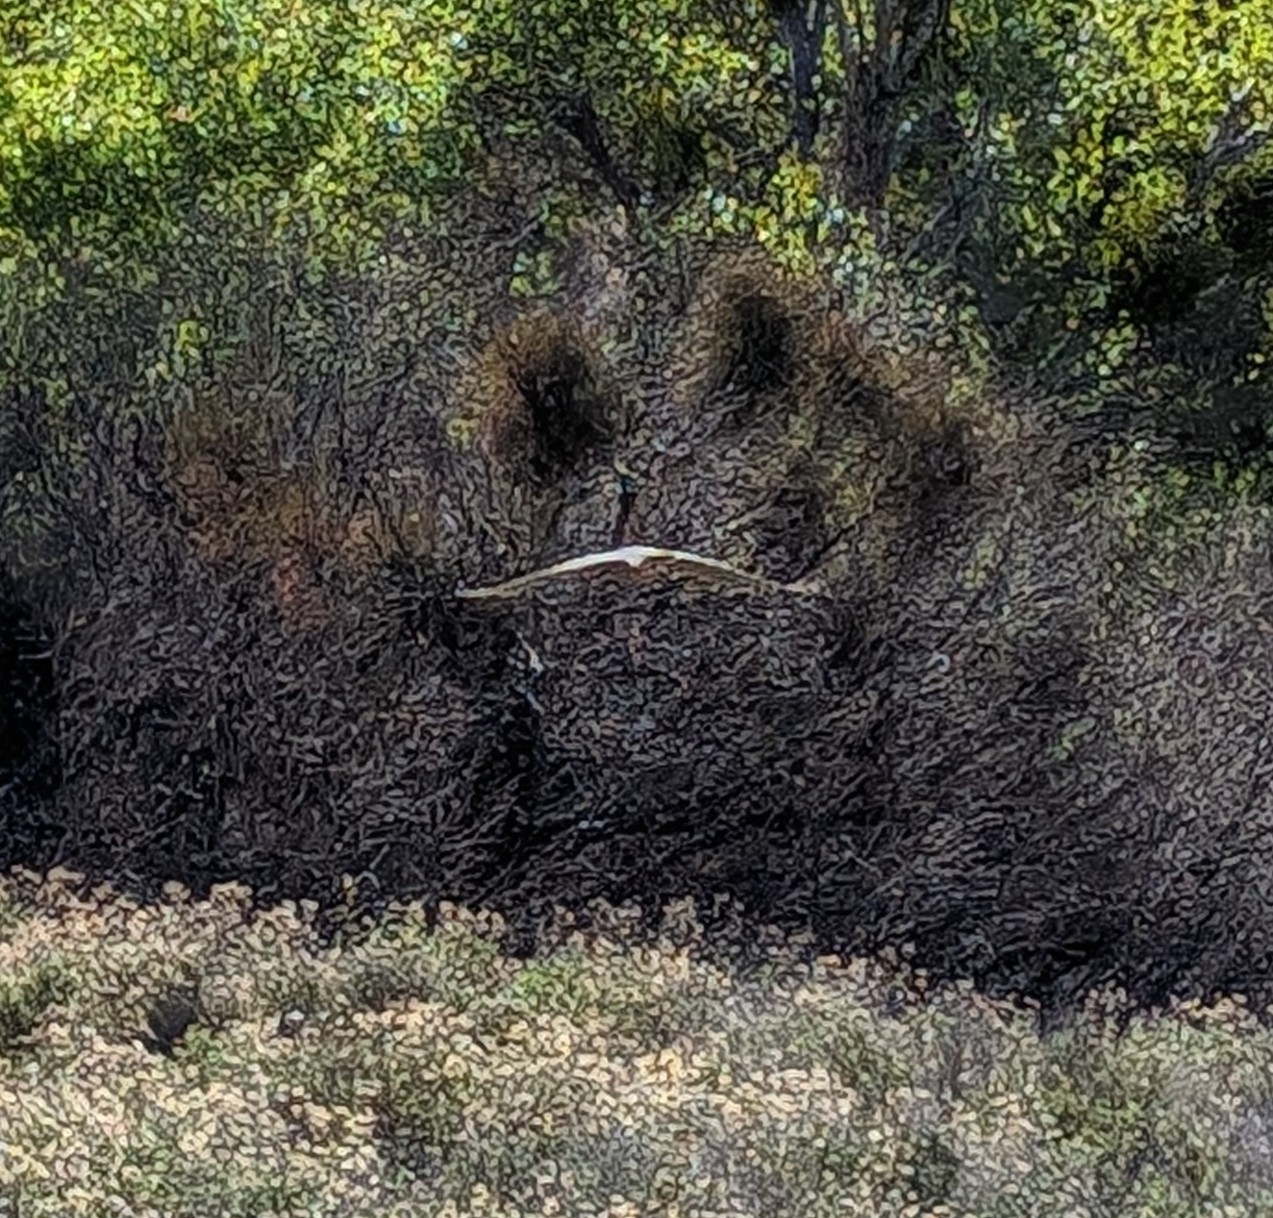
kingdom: Animalia
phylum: Chordata
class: Aves
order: Accipitriformes
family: Accipitridae
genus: Accipiter
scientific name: Accipiter cooperii
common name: Cooper's hawk
